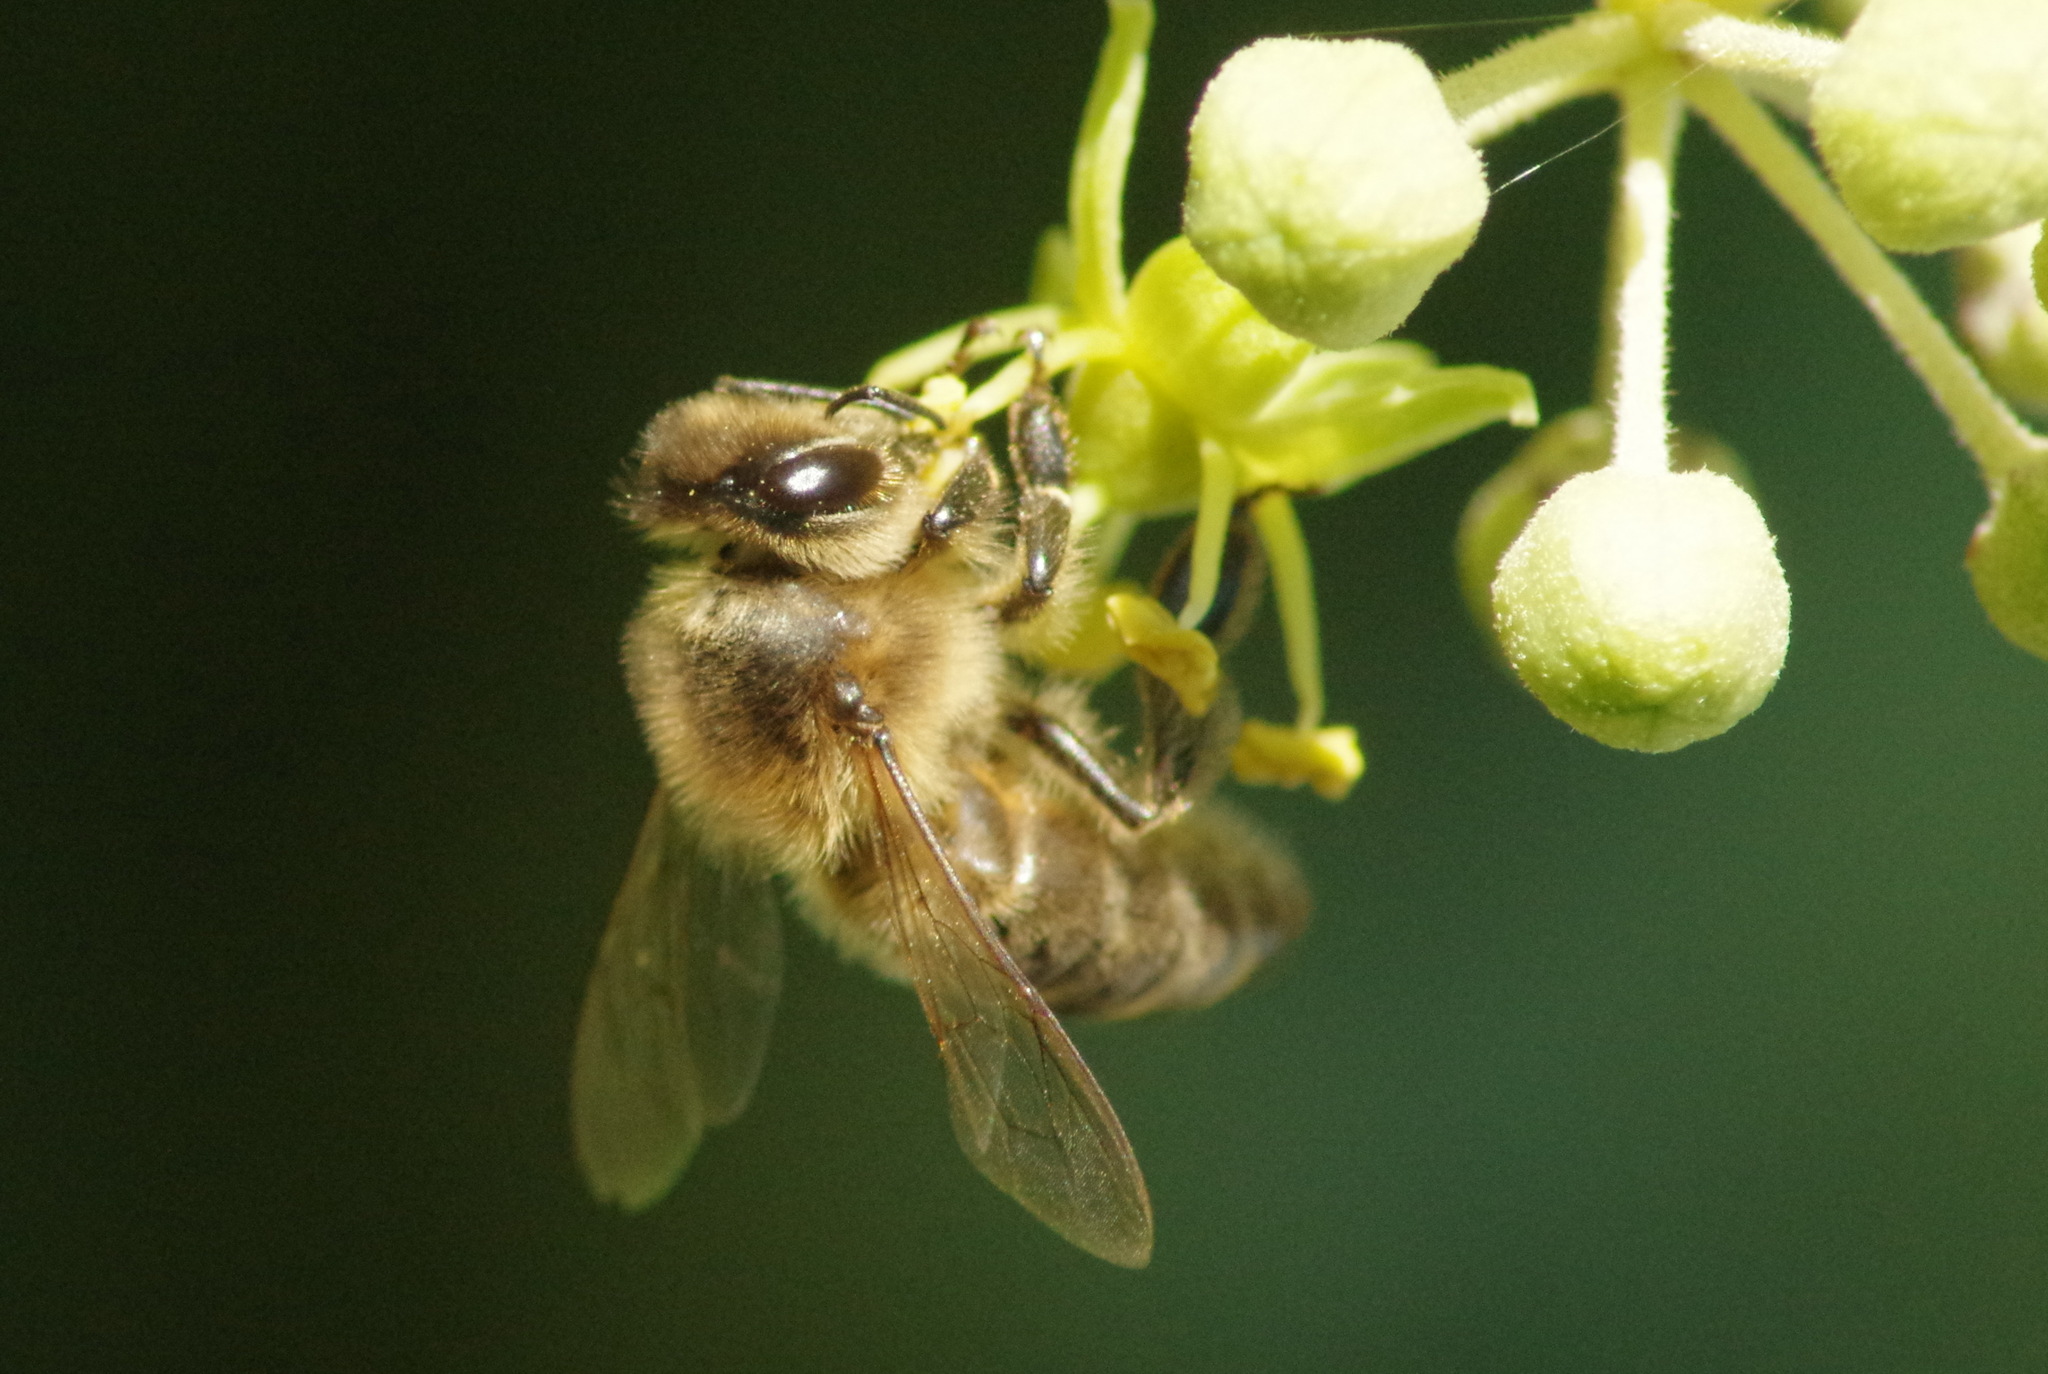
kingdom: Animalia
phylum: Arthropoda
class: Insecta
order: Hymenoptera
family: Apidae
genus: Apis
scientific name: Apis mellifera
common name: Honey bee
